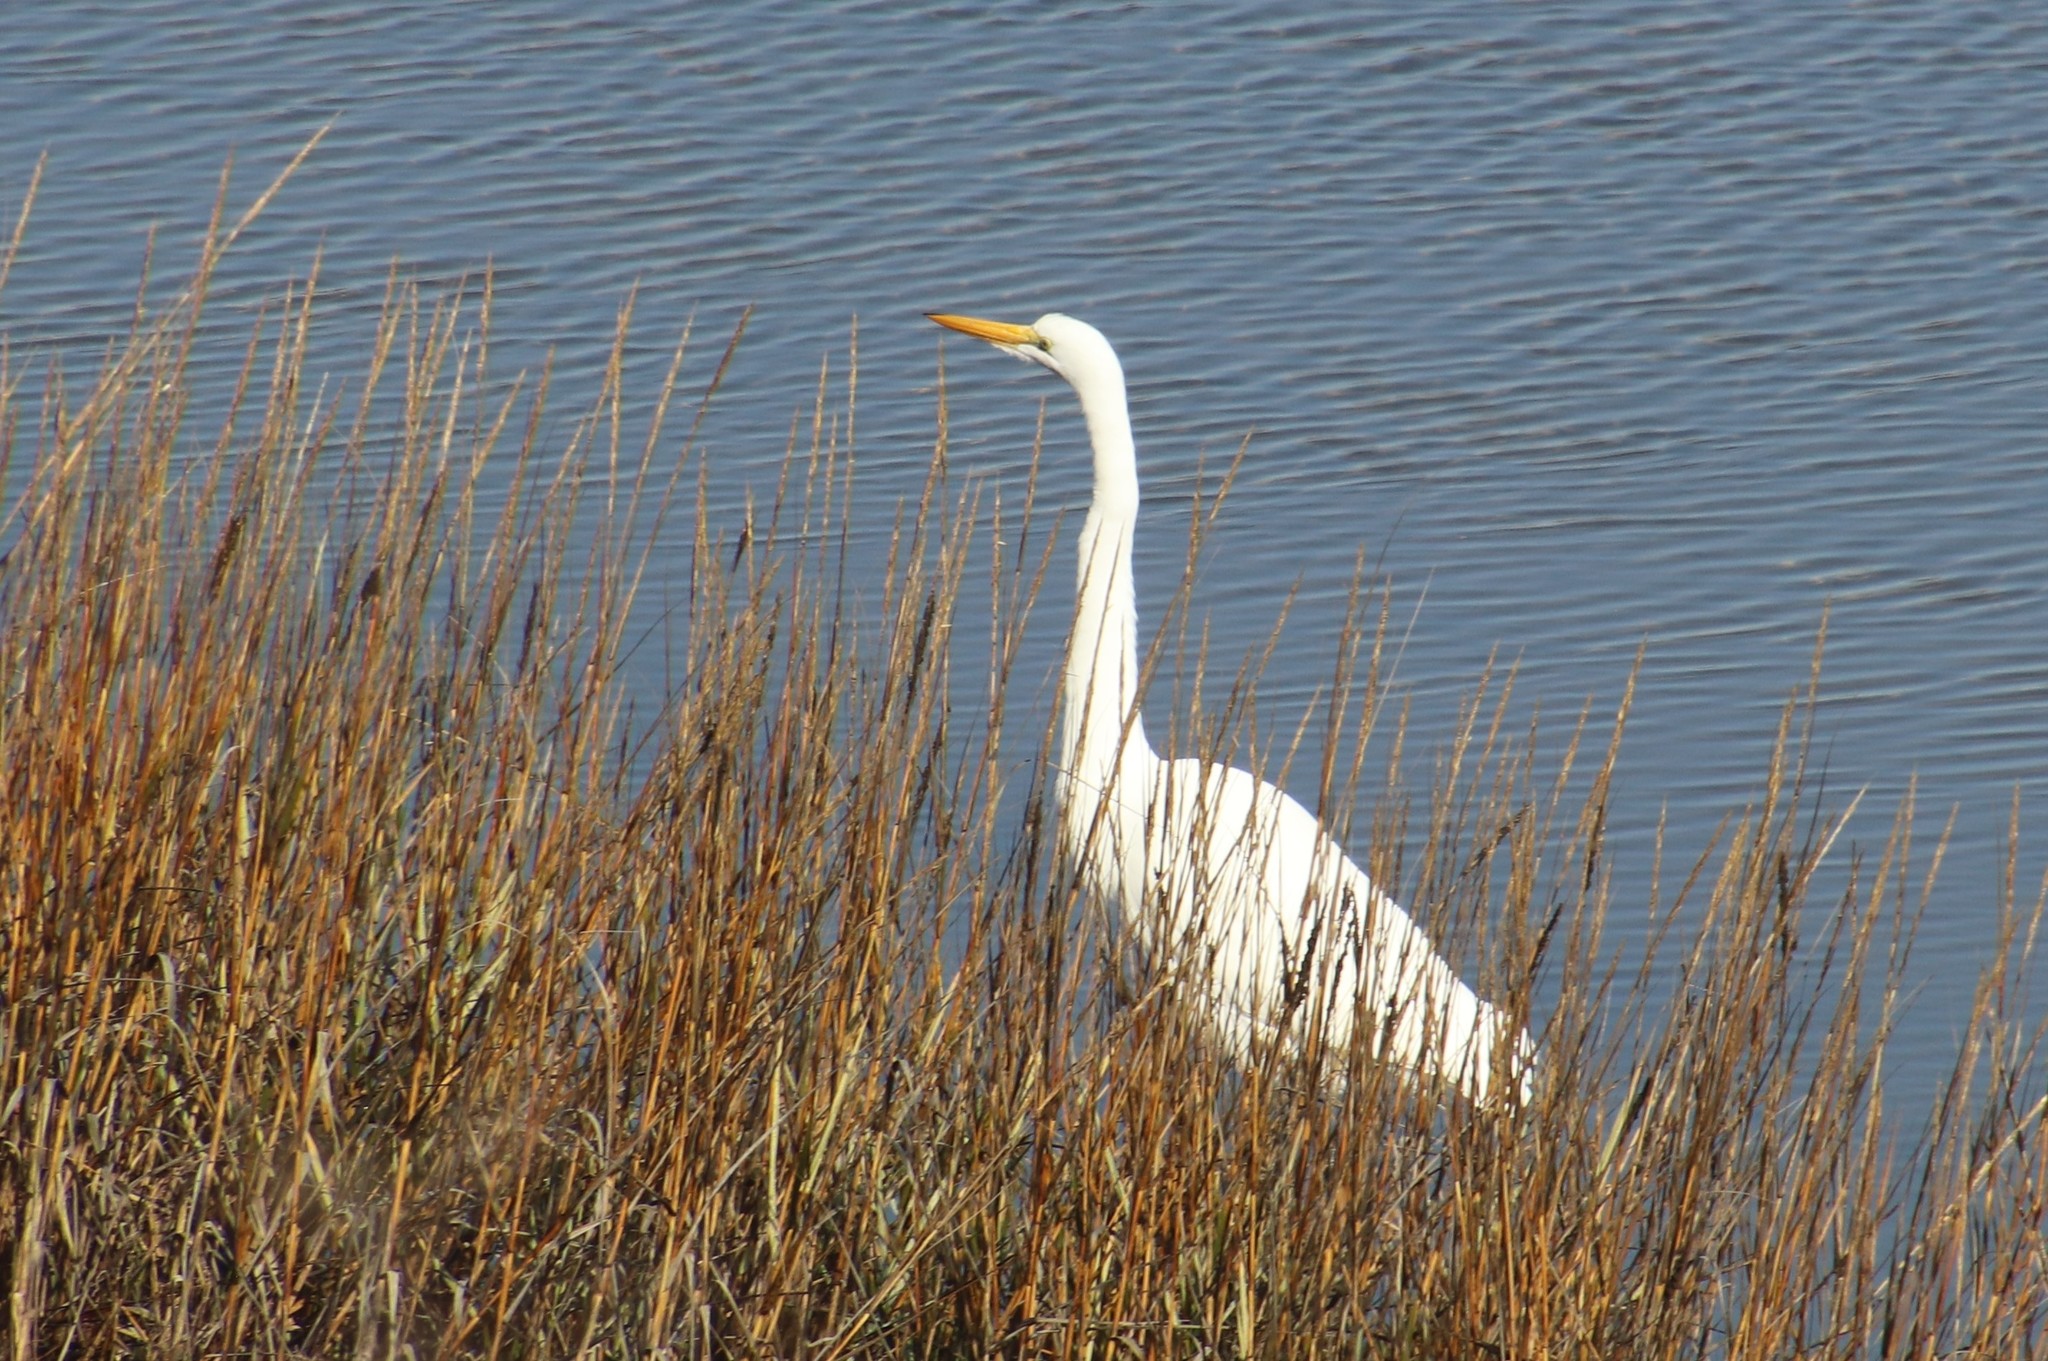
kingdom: Animalia
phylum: Chordata
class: Aves
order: Pelecaniformes
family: Ardeidae
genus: Ardea
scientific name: Ardea alba
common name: Great egret
